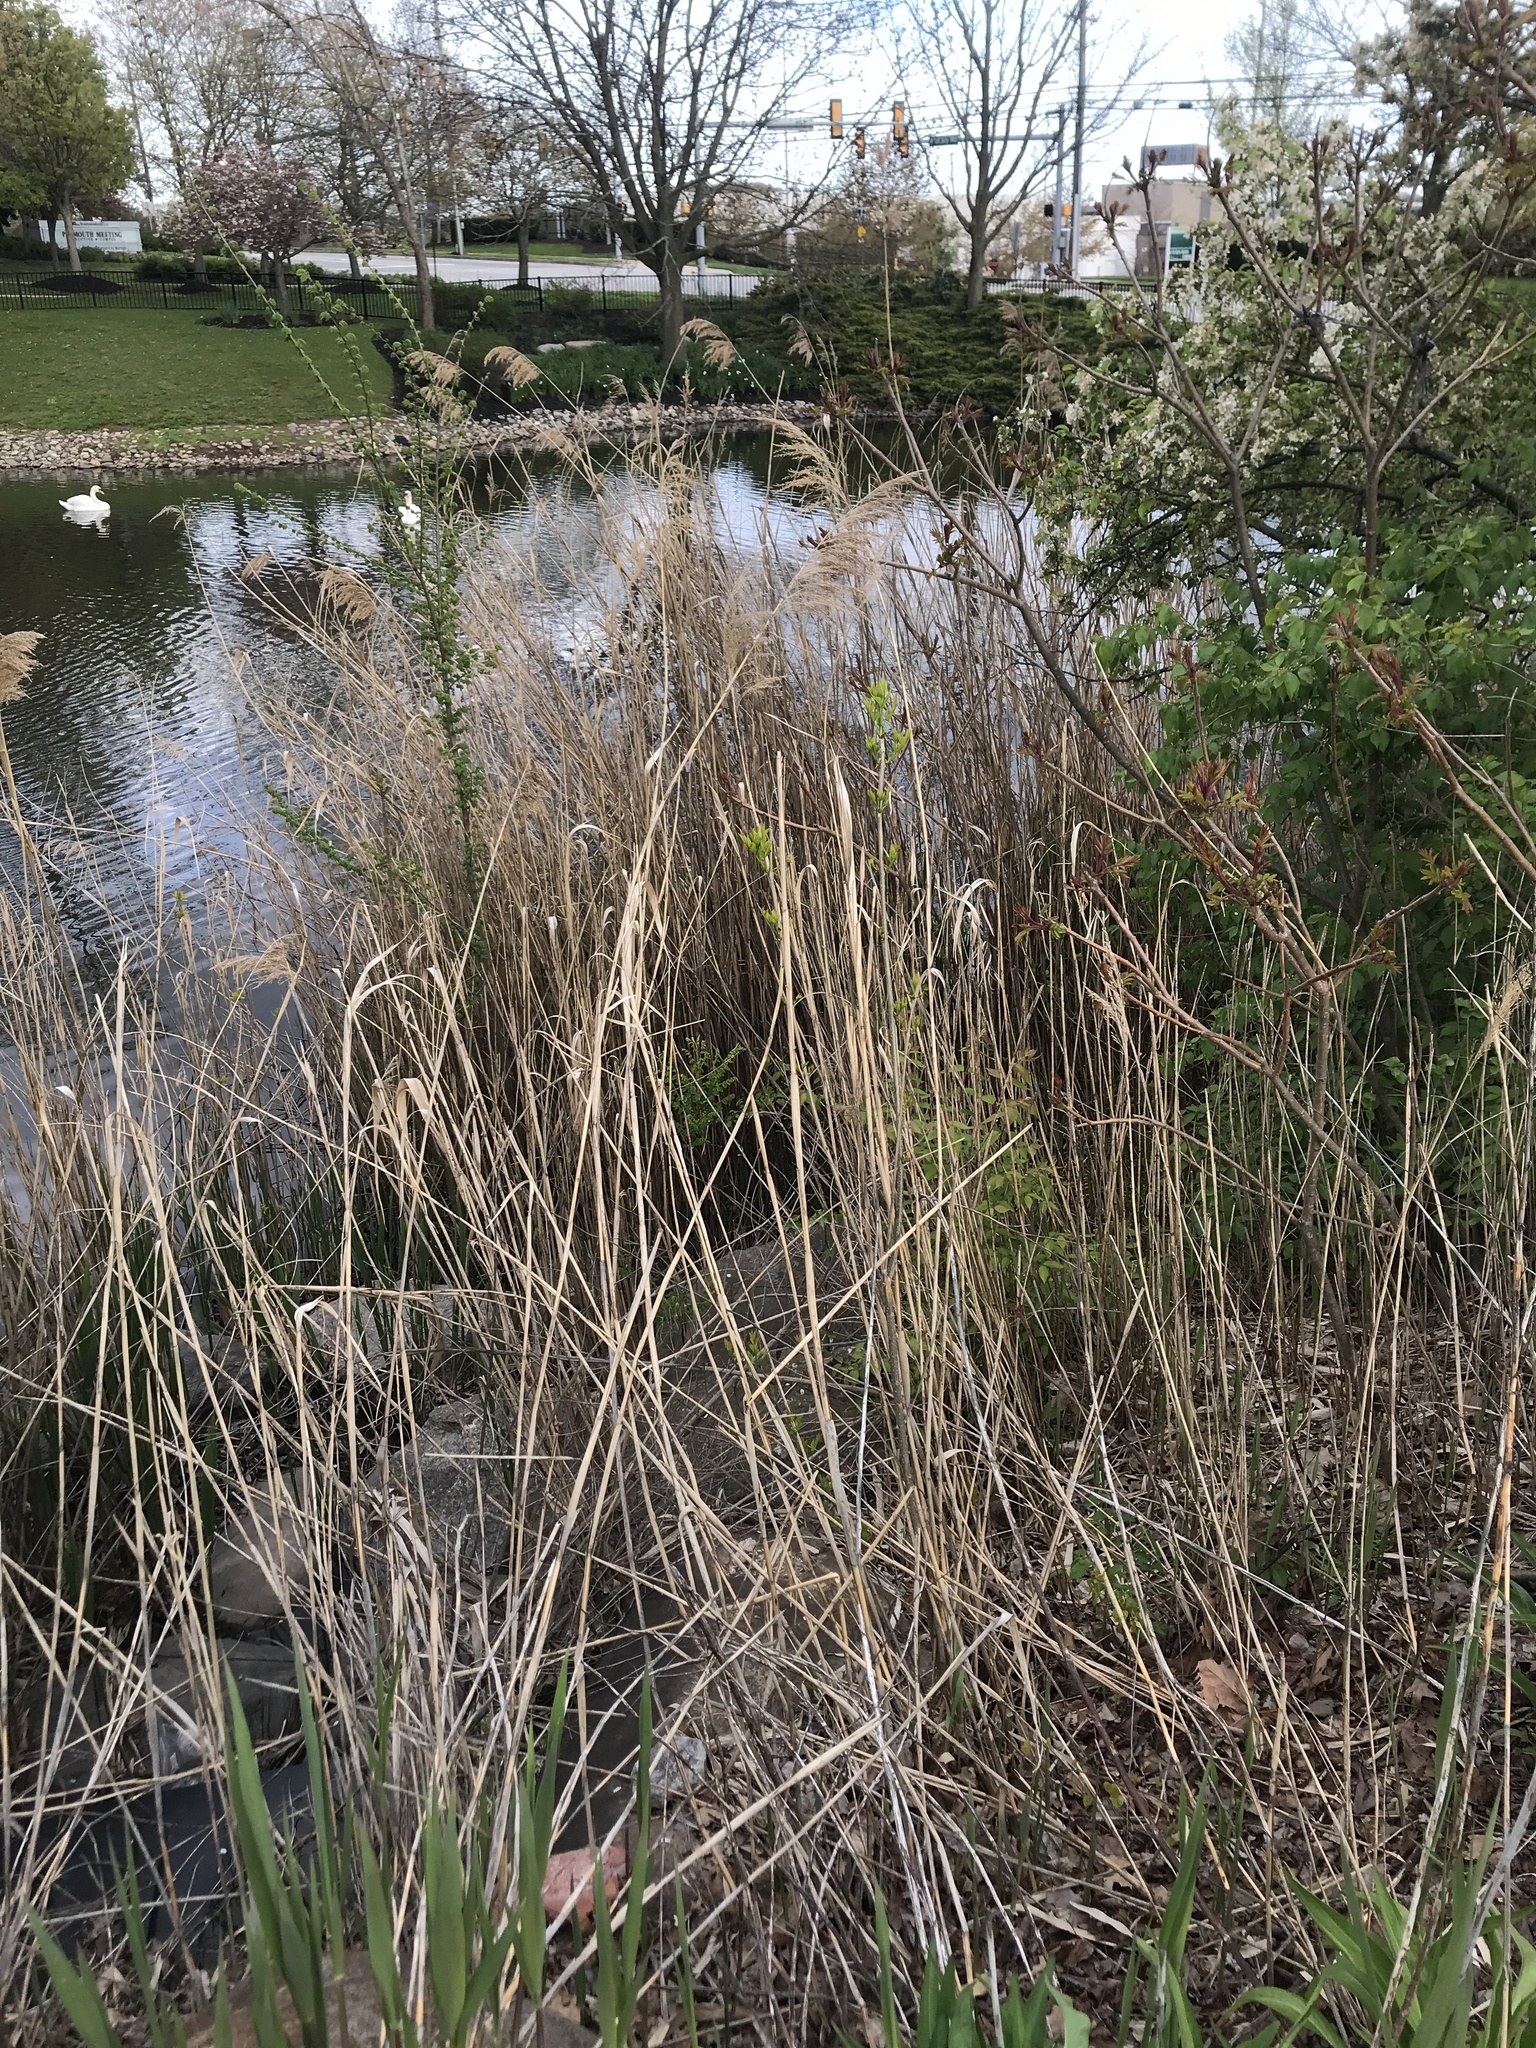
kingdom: Plantae
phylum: Tracheophyta
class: Liliopsida
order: Poales
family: Poaceae
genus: Phragmites
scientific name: Phragmites australis
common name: Common reed
